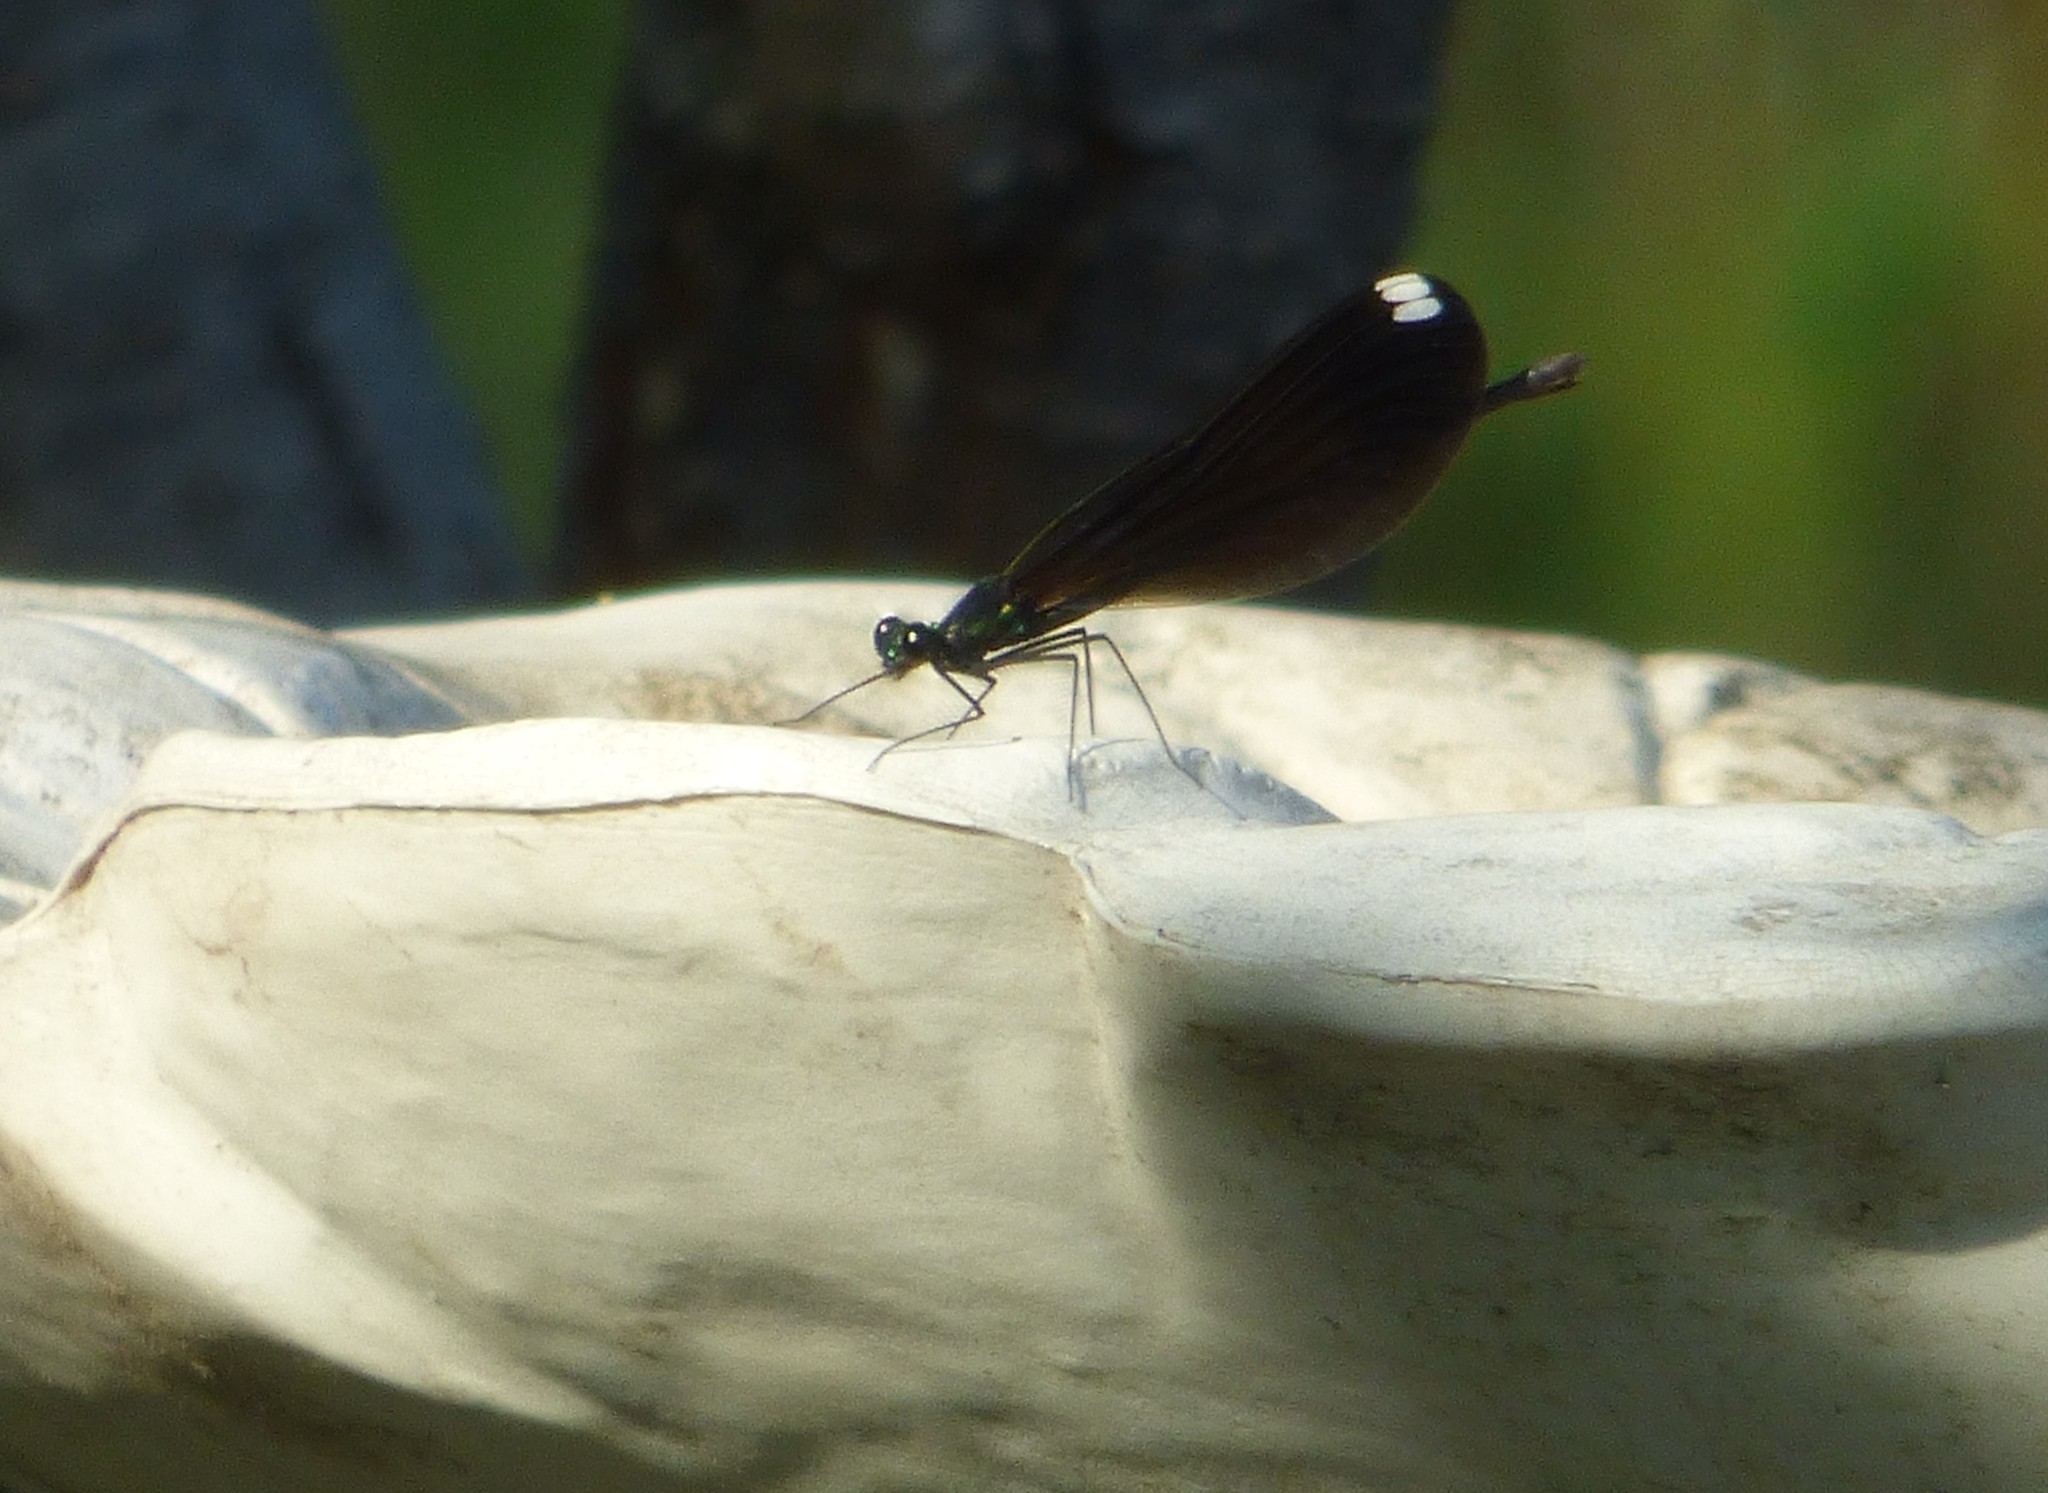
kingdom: Animalia
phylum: Arthropoda
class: Insecta
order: Odonata
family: Calopterygidae
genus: Calopteryx
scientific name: Calopteryx maculata
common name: Ebony jewelwing
